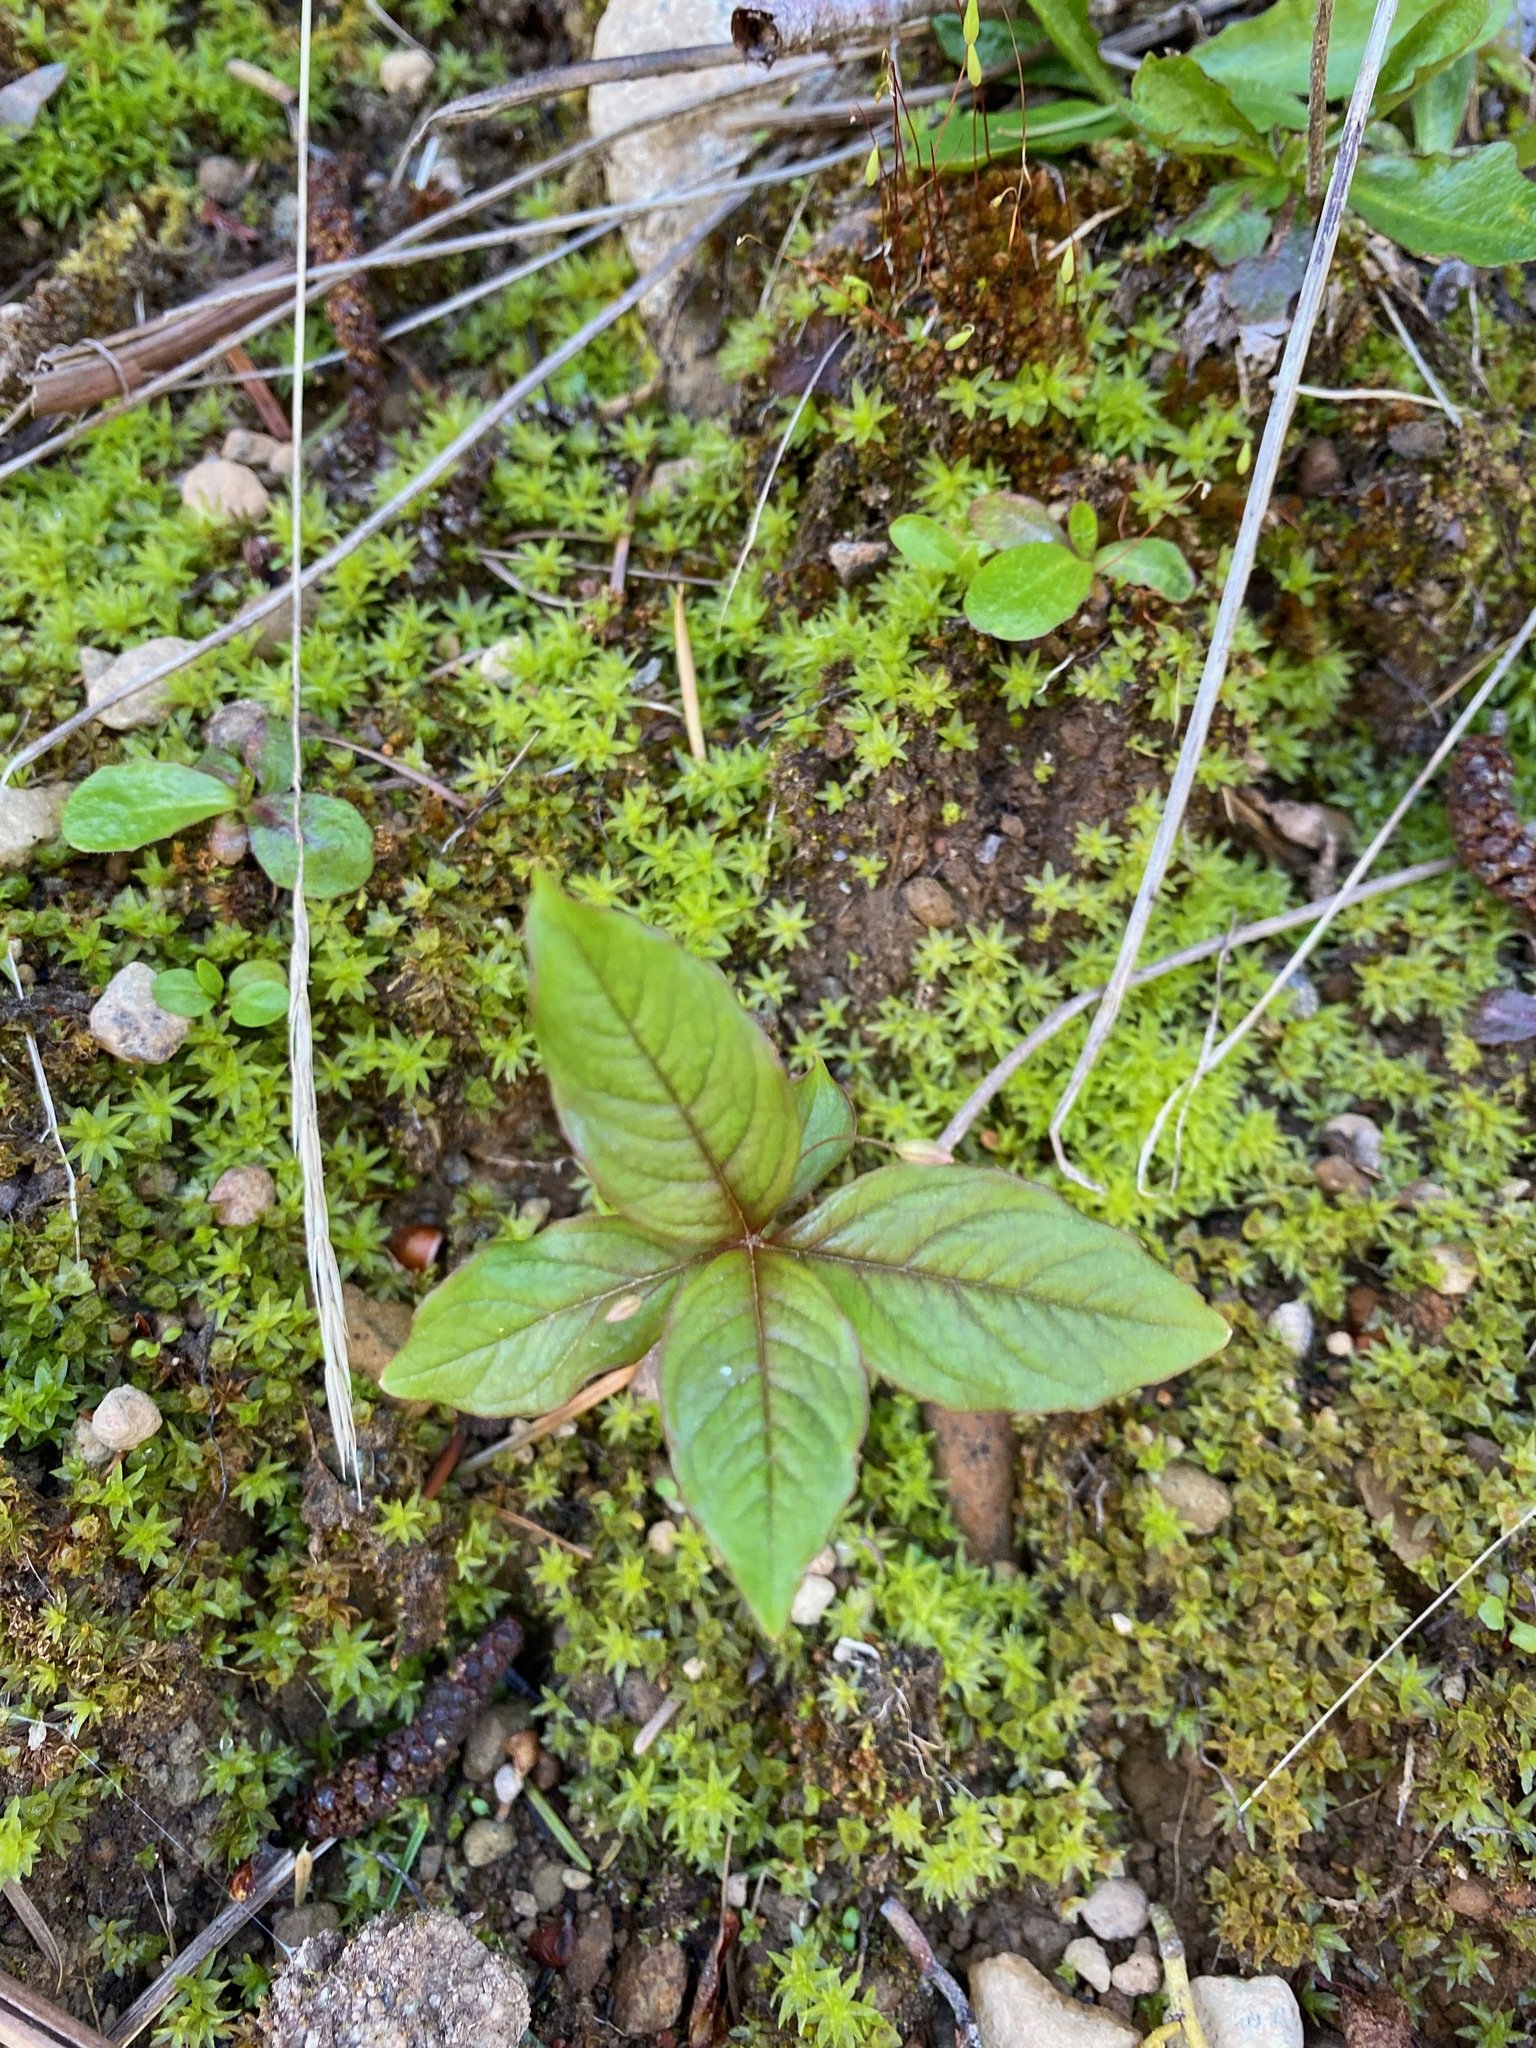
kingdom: Plantae
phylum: Tracheophyta
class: Magnoliopsida
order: Ericales
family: Primulaceae
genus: Lysimachia
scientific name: Lysimachia latifolia
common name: Pacific starflower
